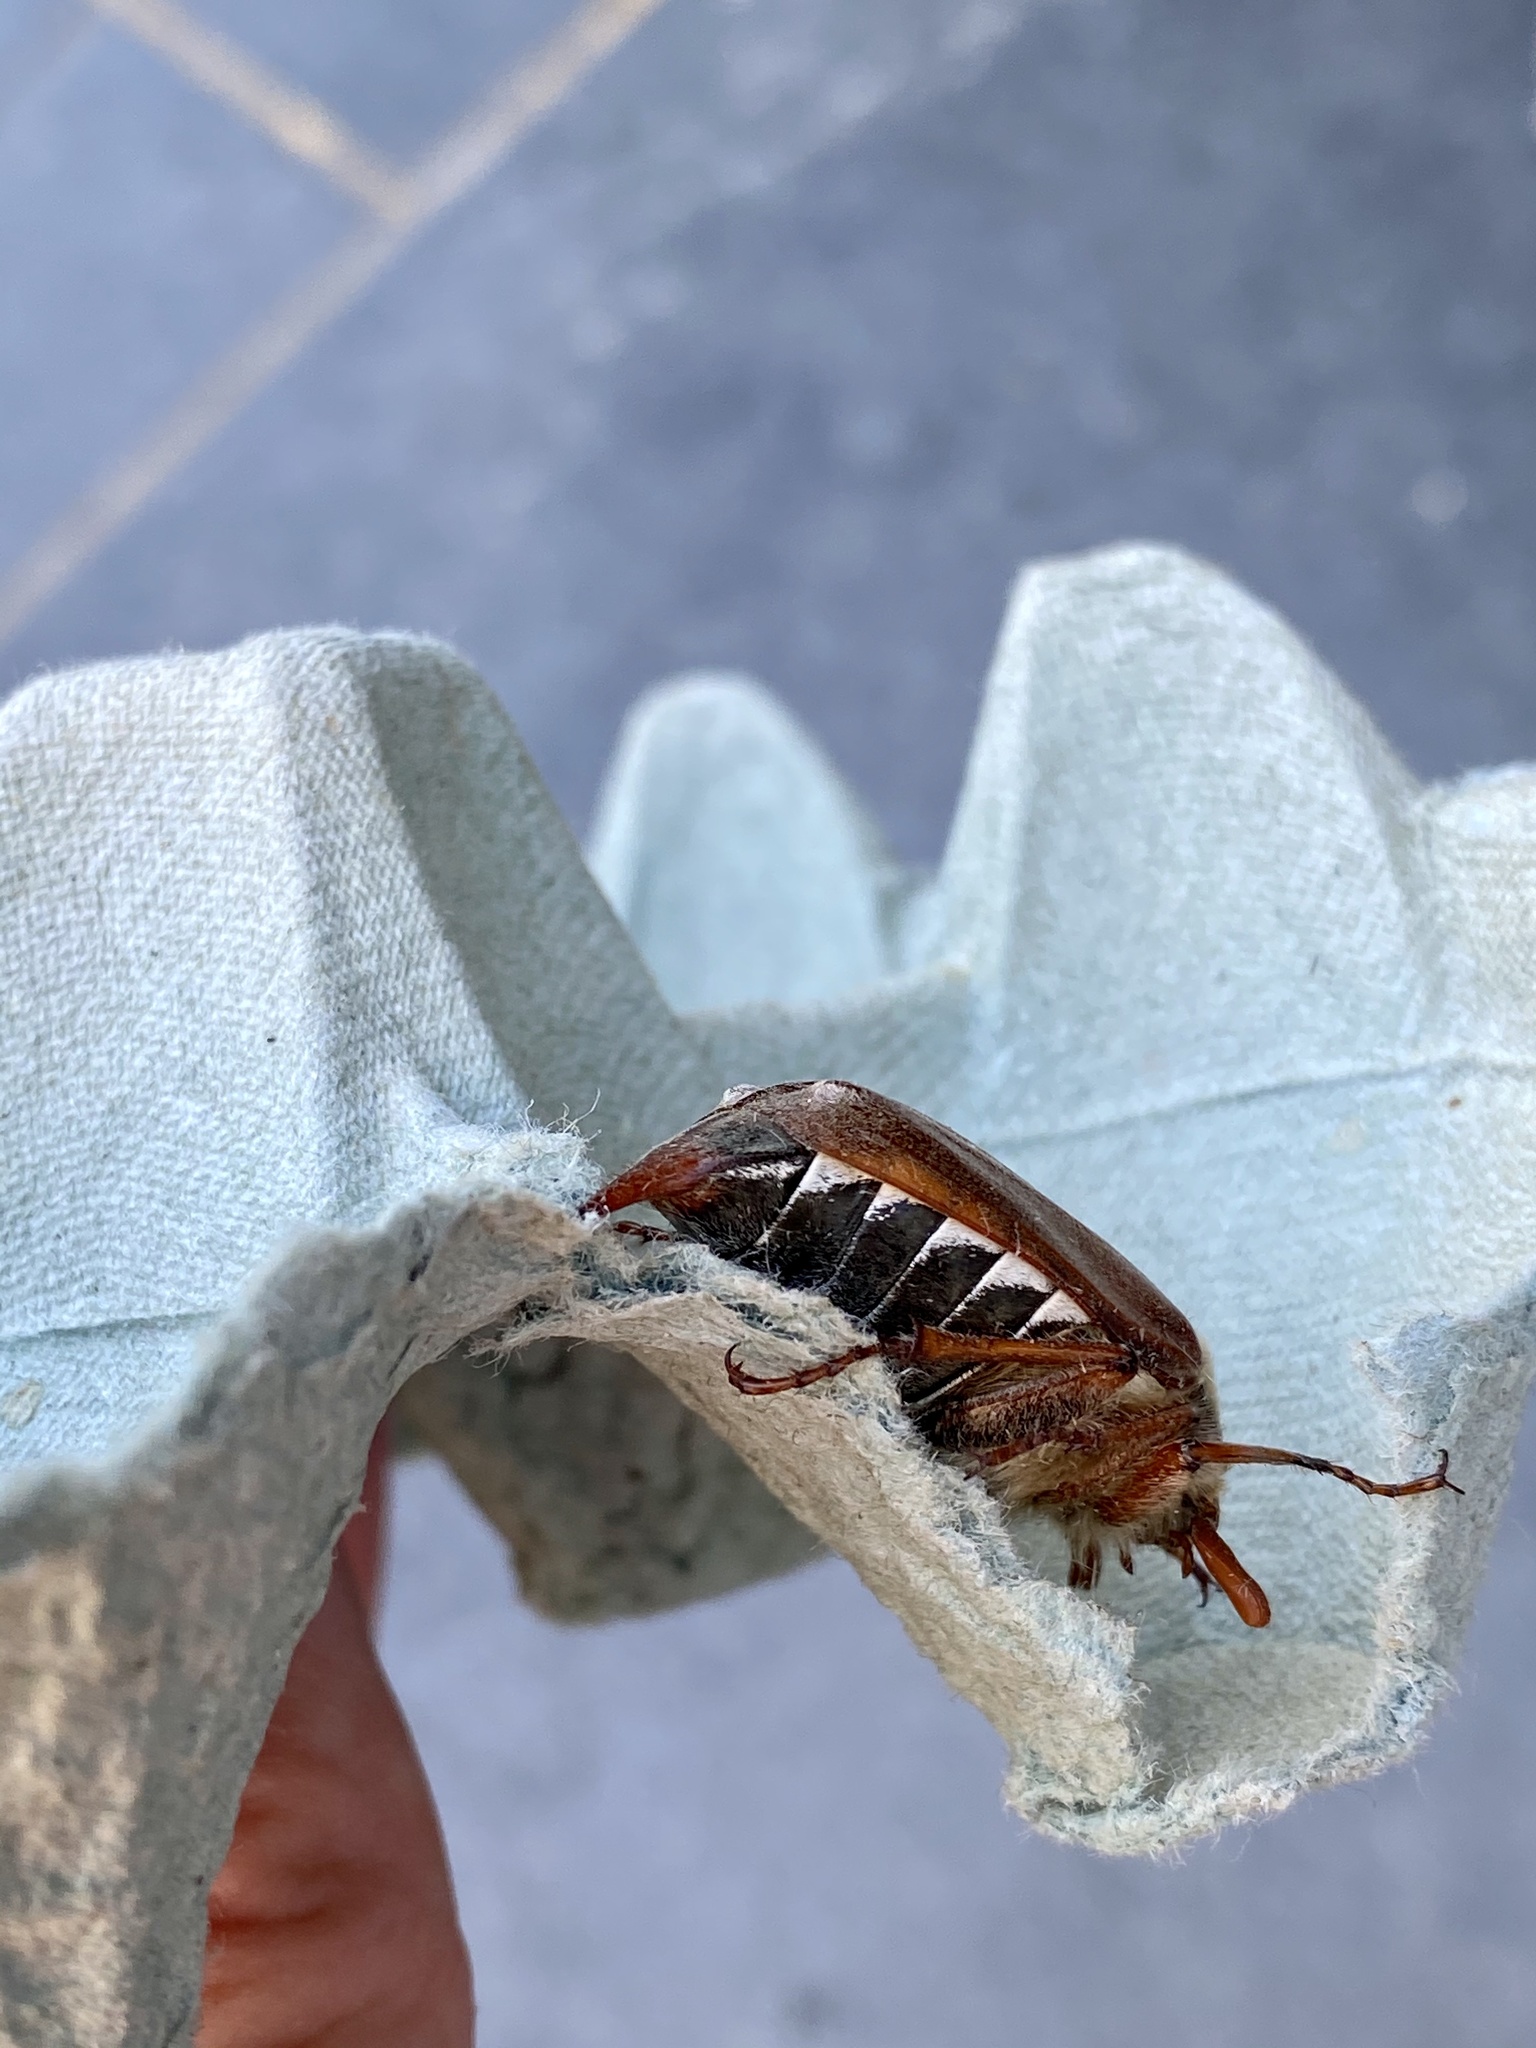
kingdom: Animalia
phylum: Arthropoda
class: Insecta
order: Coleoptera
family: Scarabaeidae
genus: Melolontha
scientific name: Melolontha melolontha
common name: Cockchafer maybeetle
